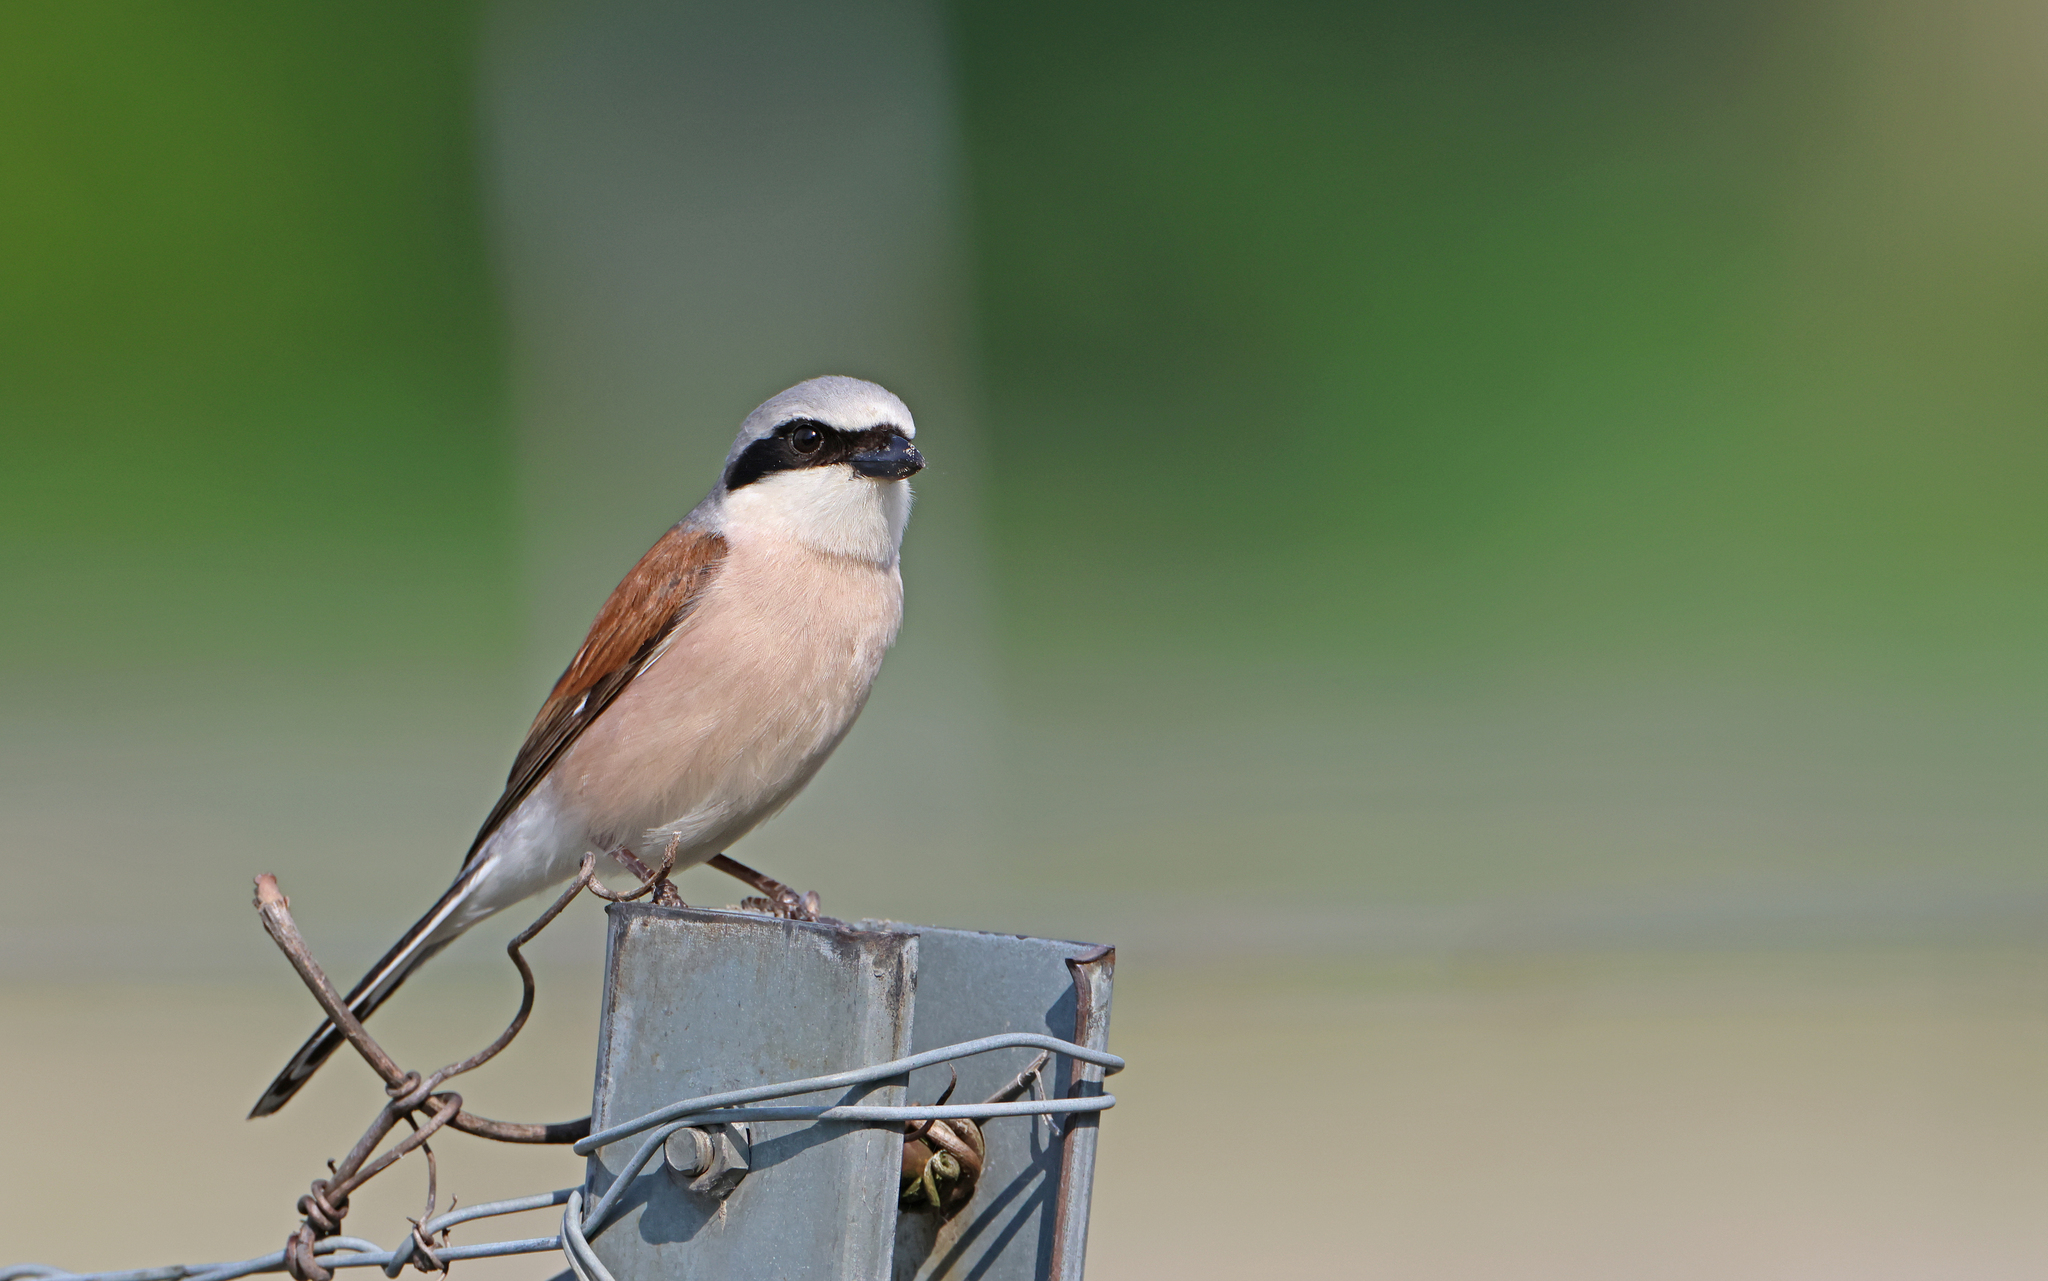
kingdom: Animalia
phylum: Chordata
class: Aves
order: Passeriformes
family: Laniidae
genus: Lanius
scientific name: Lanius collurio
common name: Red-backed shrike
